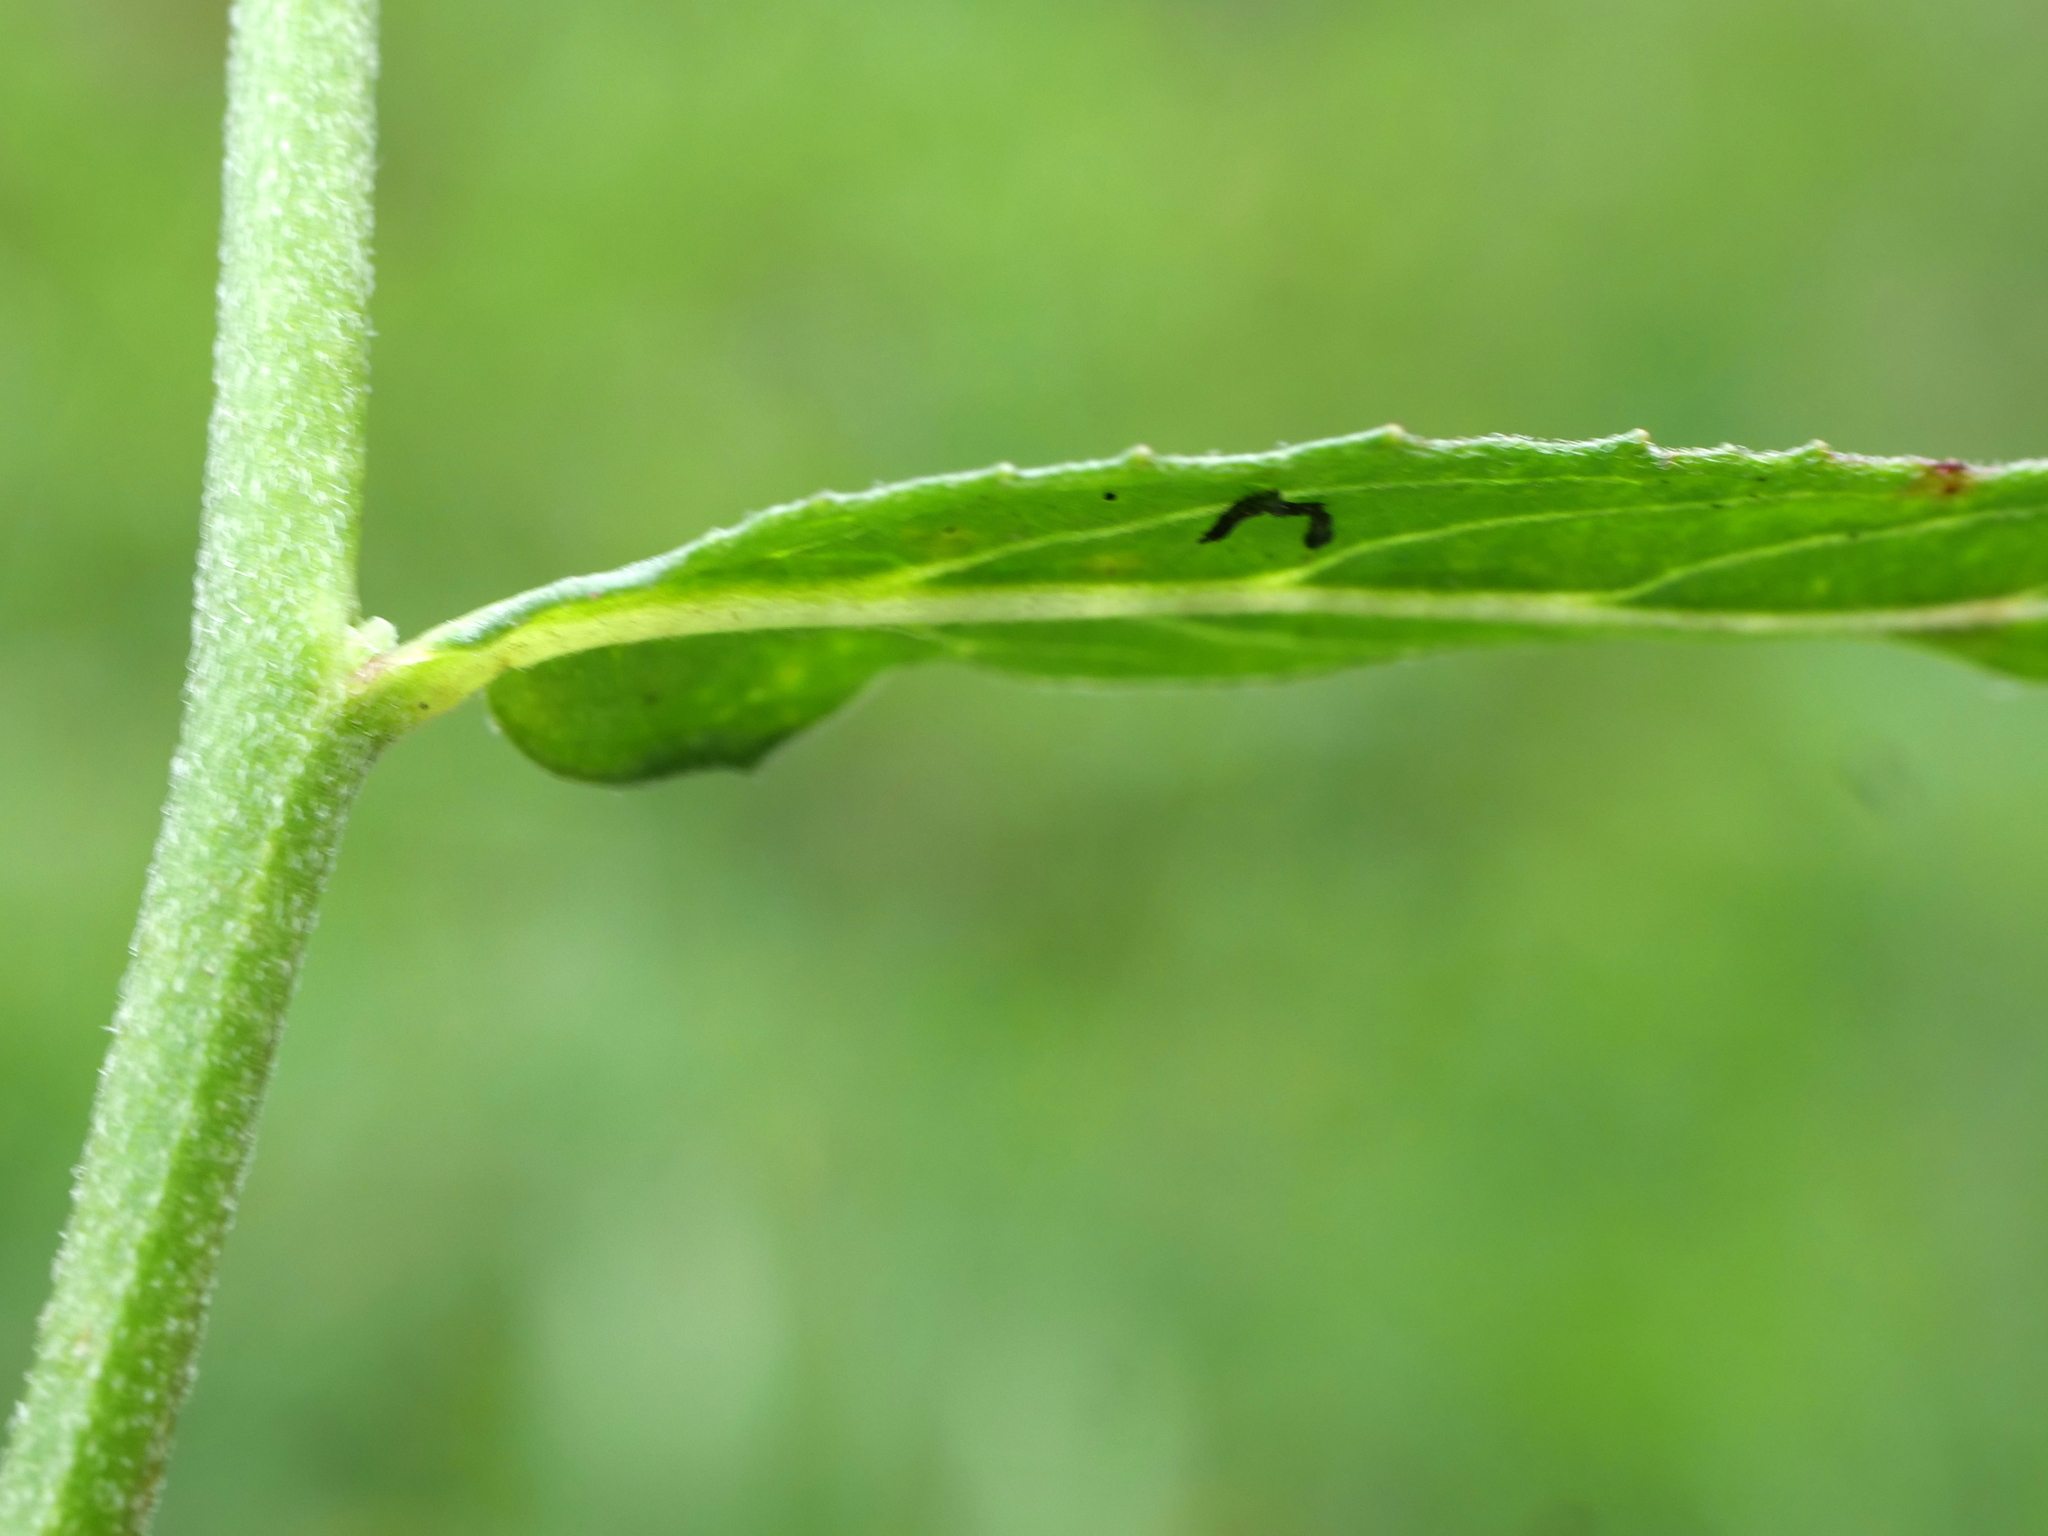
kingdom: Plantae
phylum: Tracheophyta
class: Magnoliopsida
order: Myrtales
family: Onagraceae
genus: Epilobium
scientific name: Epilobium parviflorum
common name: Hoary willowherb
